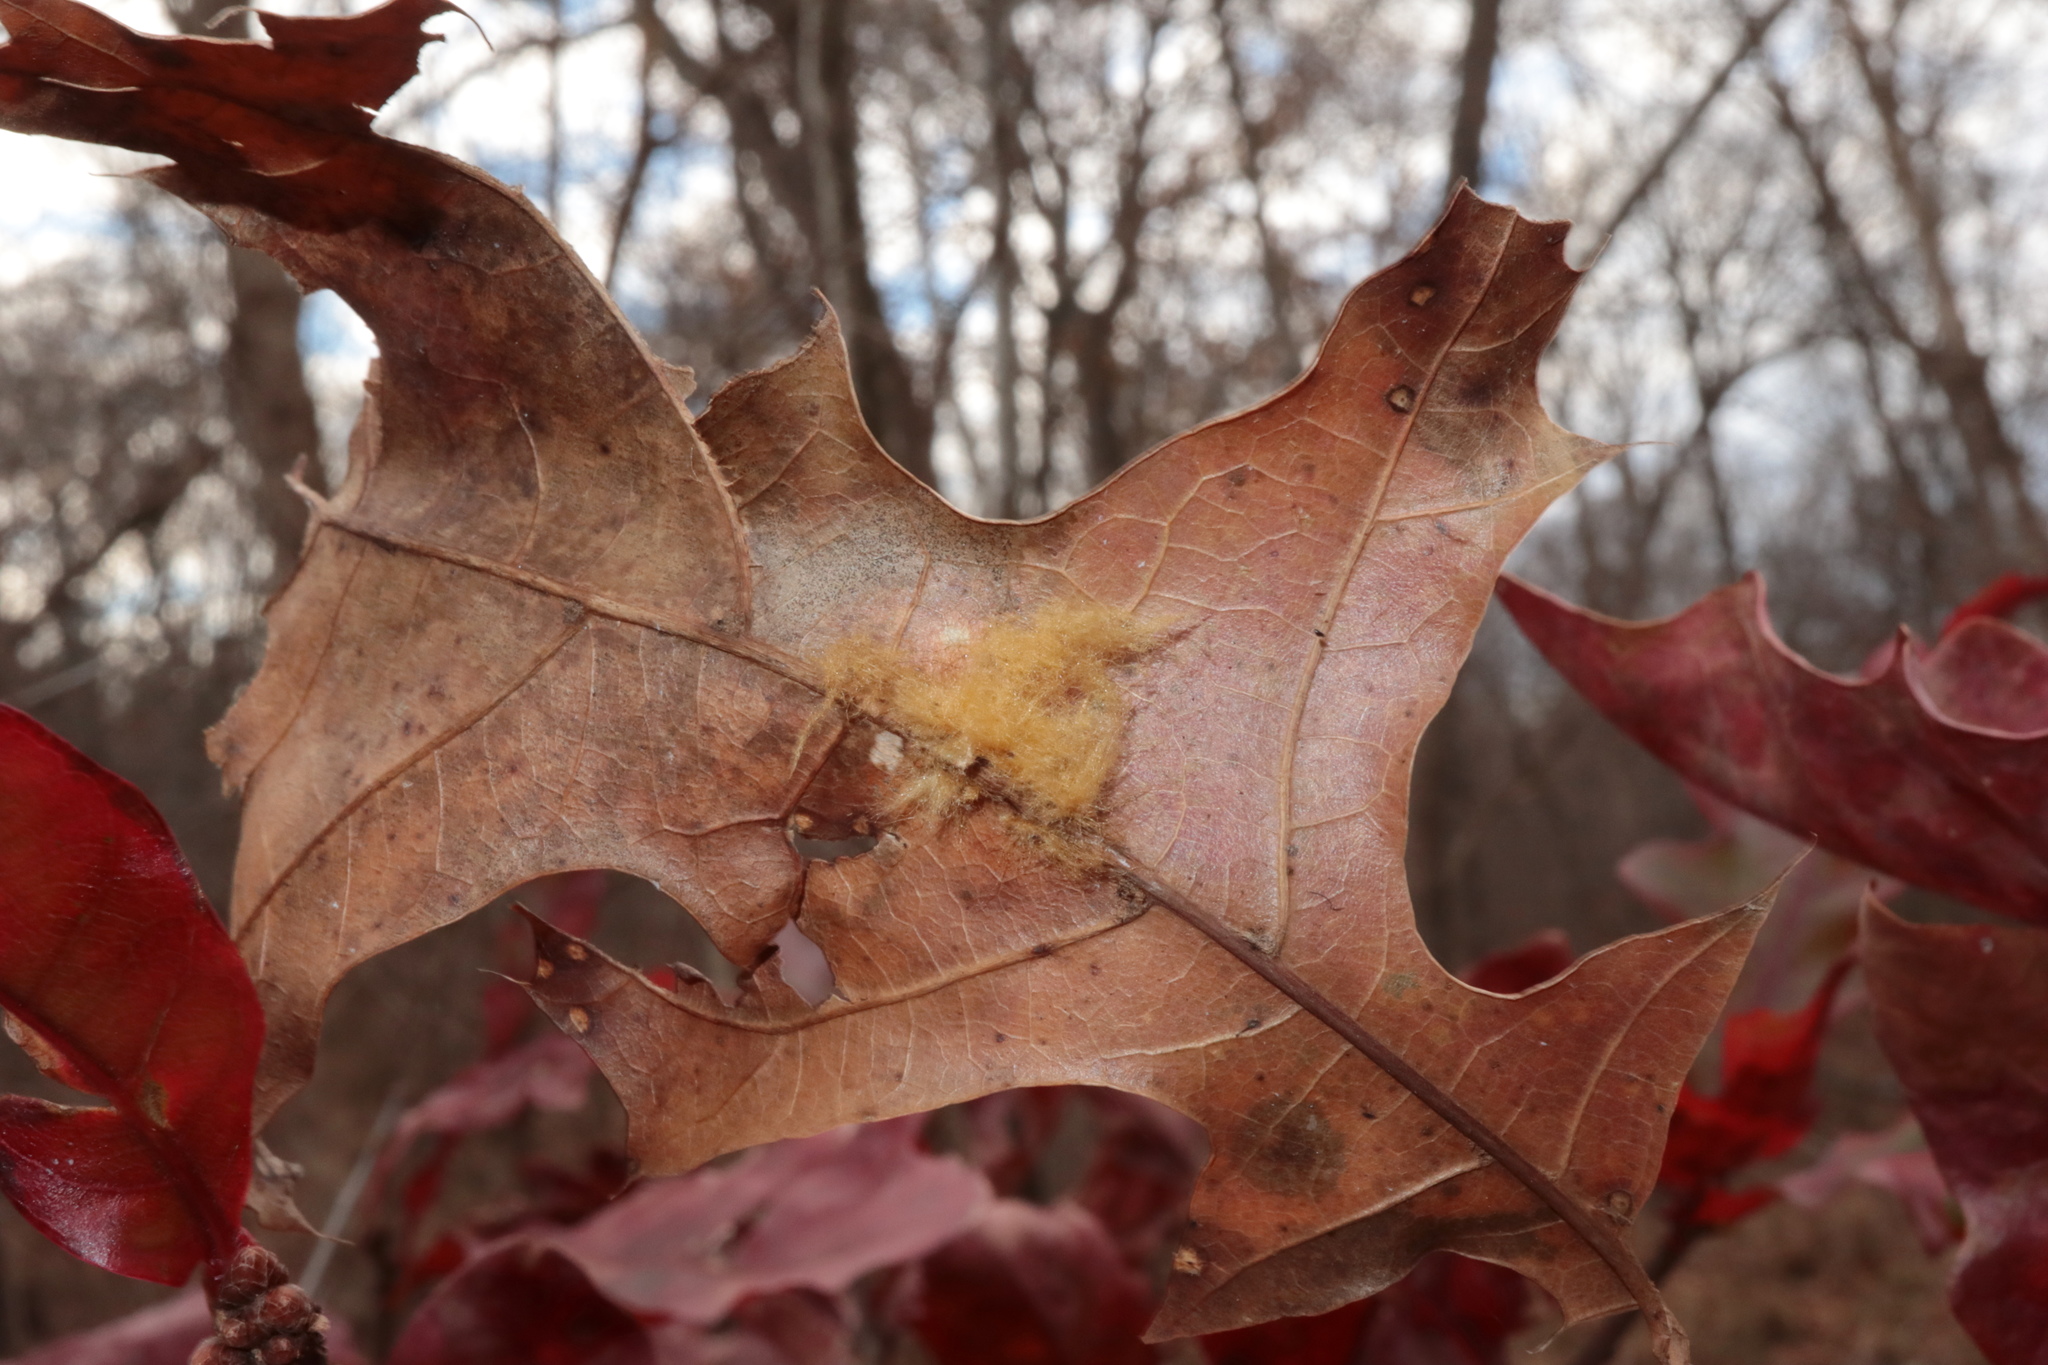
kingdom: Animalia
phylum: Arthropoda
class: Insecta
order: Hymenoptera
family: Cynipidae
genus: Callirhytis
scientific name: Callirhytis
